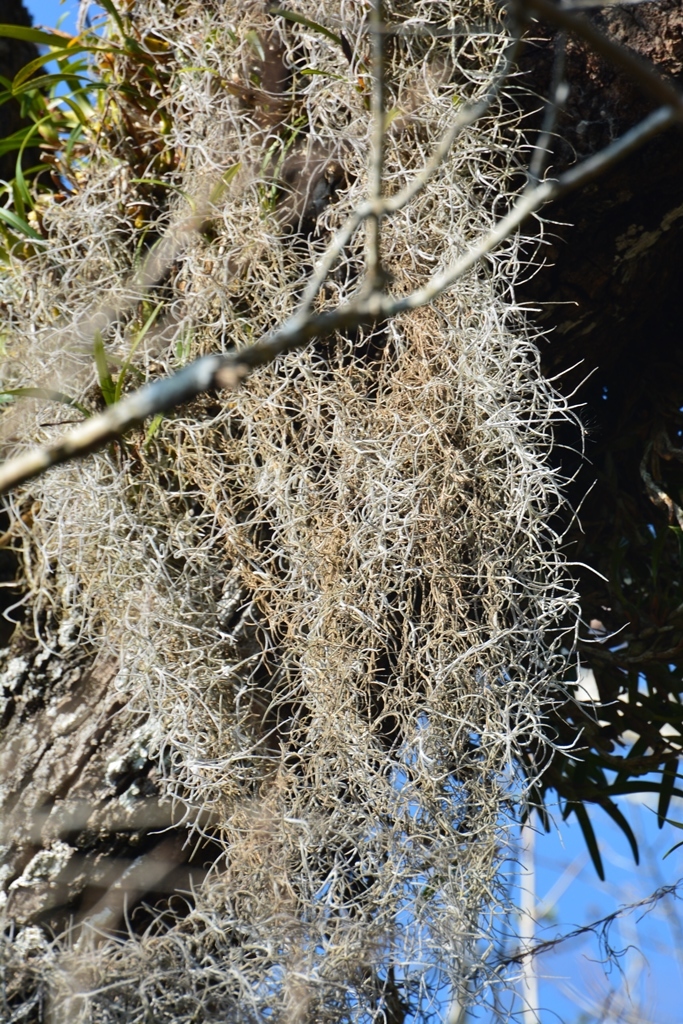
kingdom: Plantae
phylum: Tracheophyta
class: Liliopsida
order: Poales
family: Bromeliaceae
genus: Tillandsia
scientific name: Tillandsia usneoides
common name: Spanish moss
